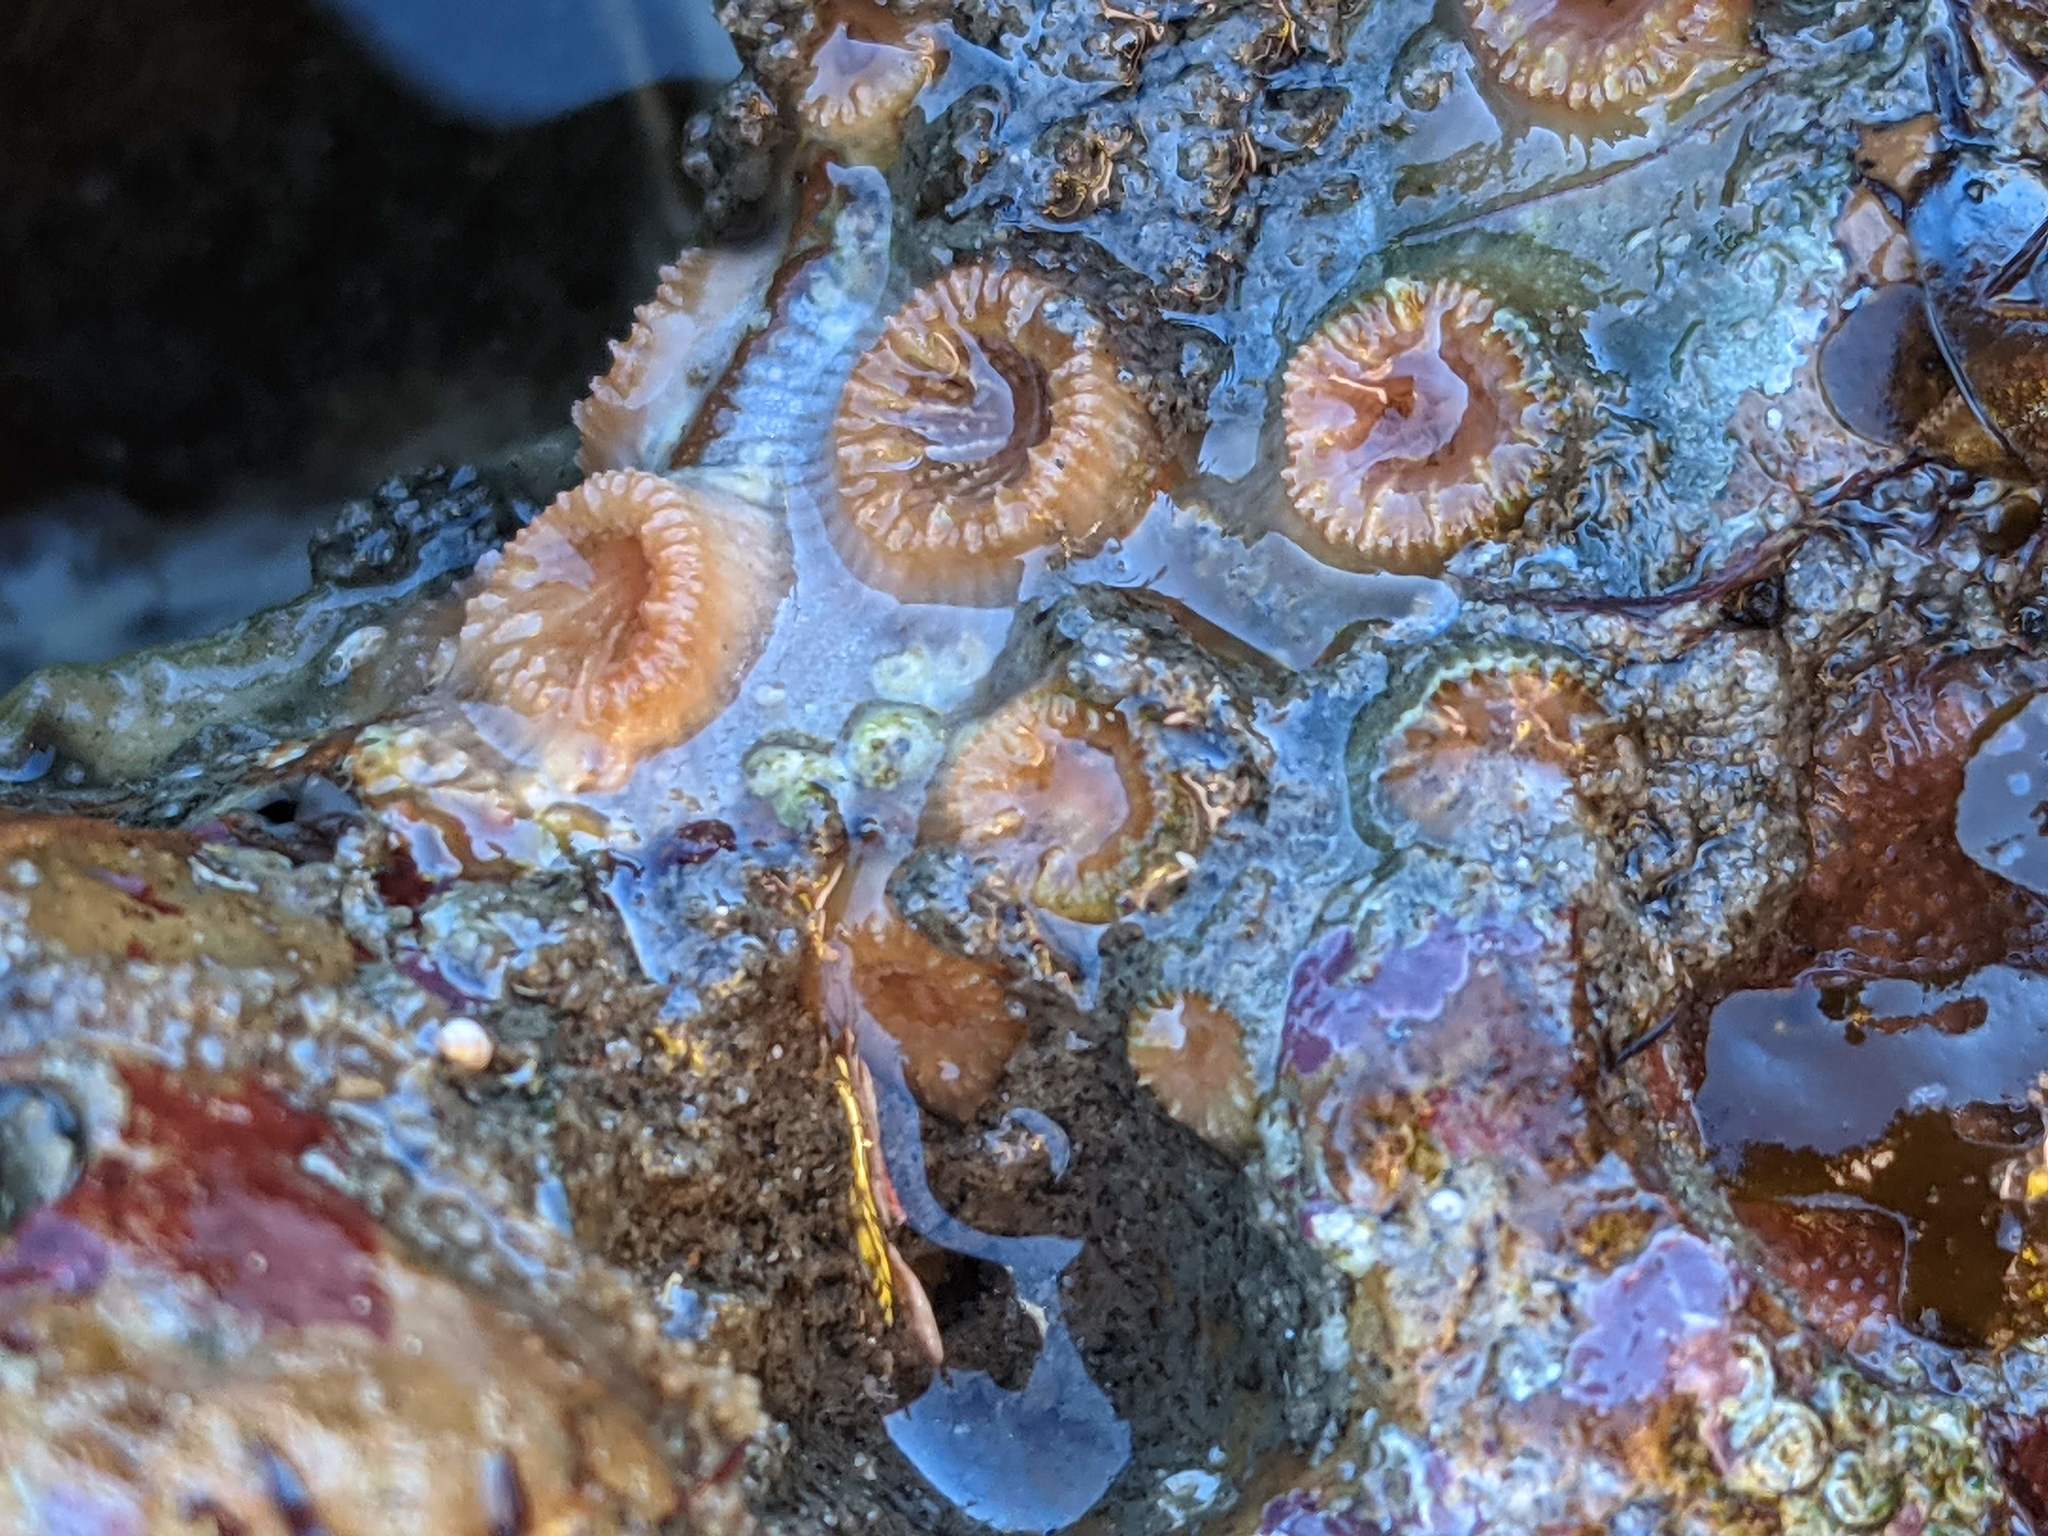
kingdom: Animalia
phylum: Cnidaria
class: Anthozoa
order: Scleractinia
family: Astrangiidae
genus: Astrangia
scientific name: Astrangia haimei
